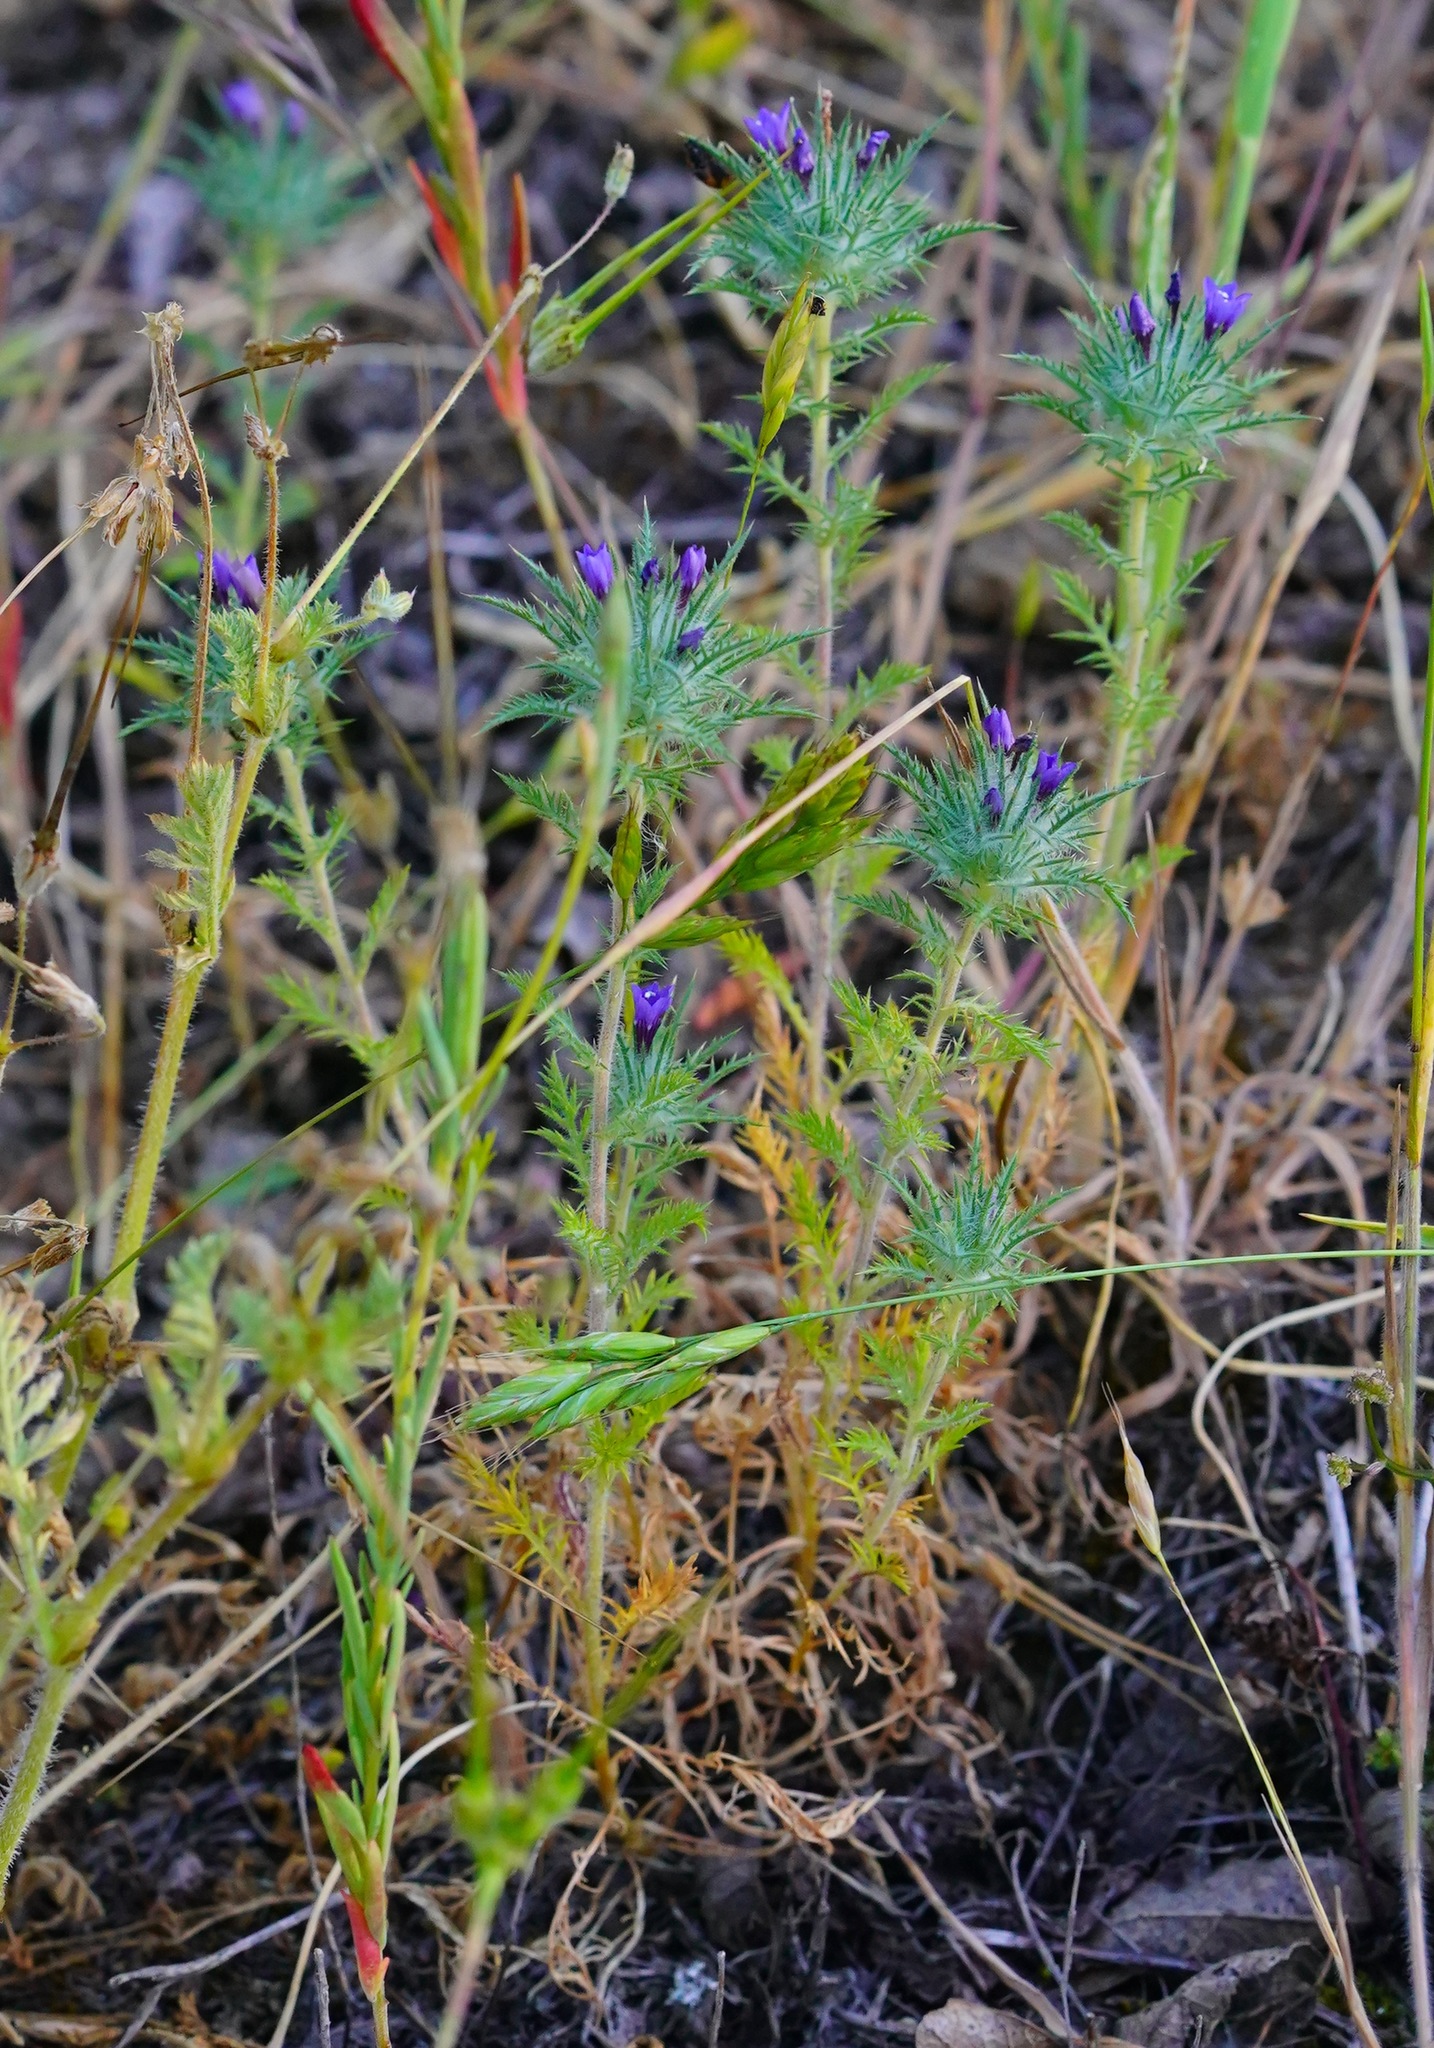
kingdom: Plantae
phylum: Tracheophyta
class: Magnoliopsida
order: Ericales
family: Polemoniaceae
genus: Navarretia
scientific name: Navarretia pubescens
